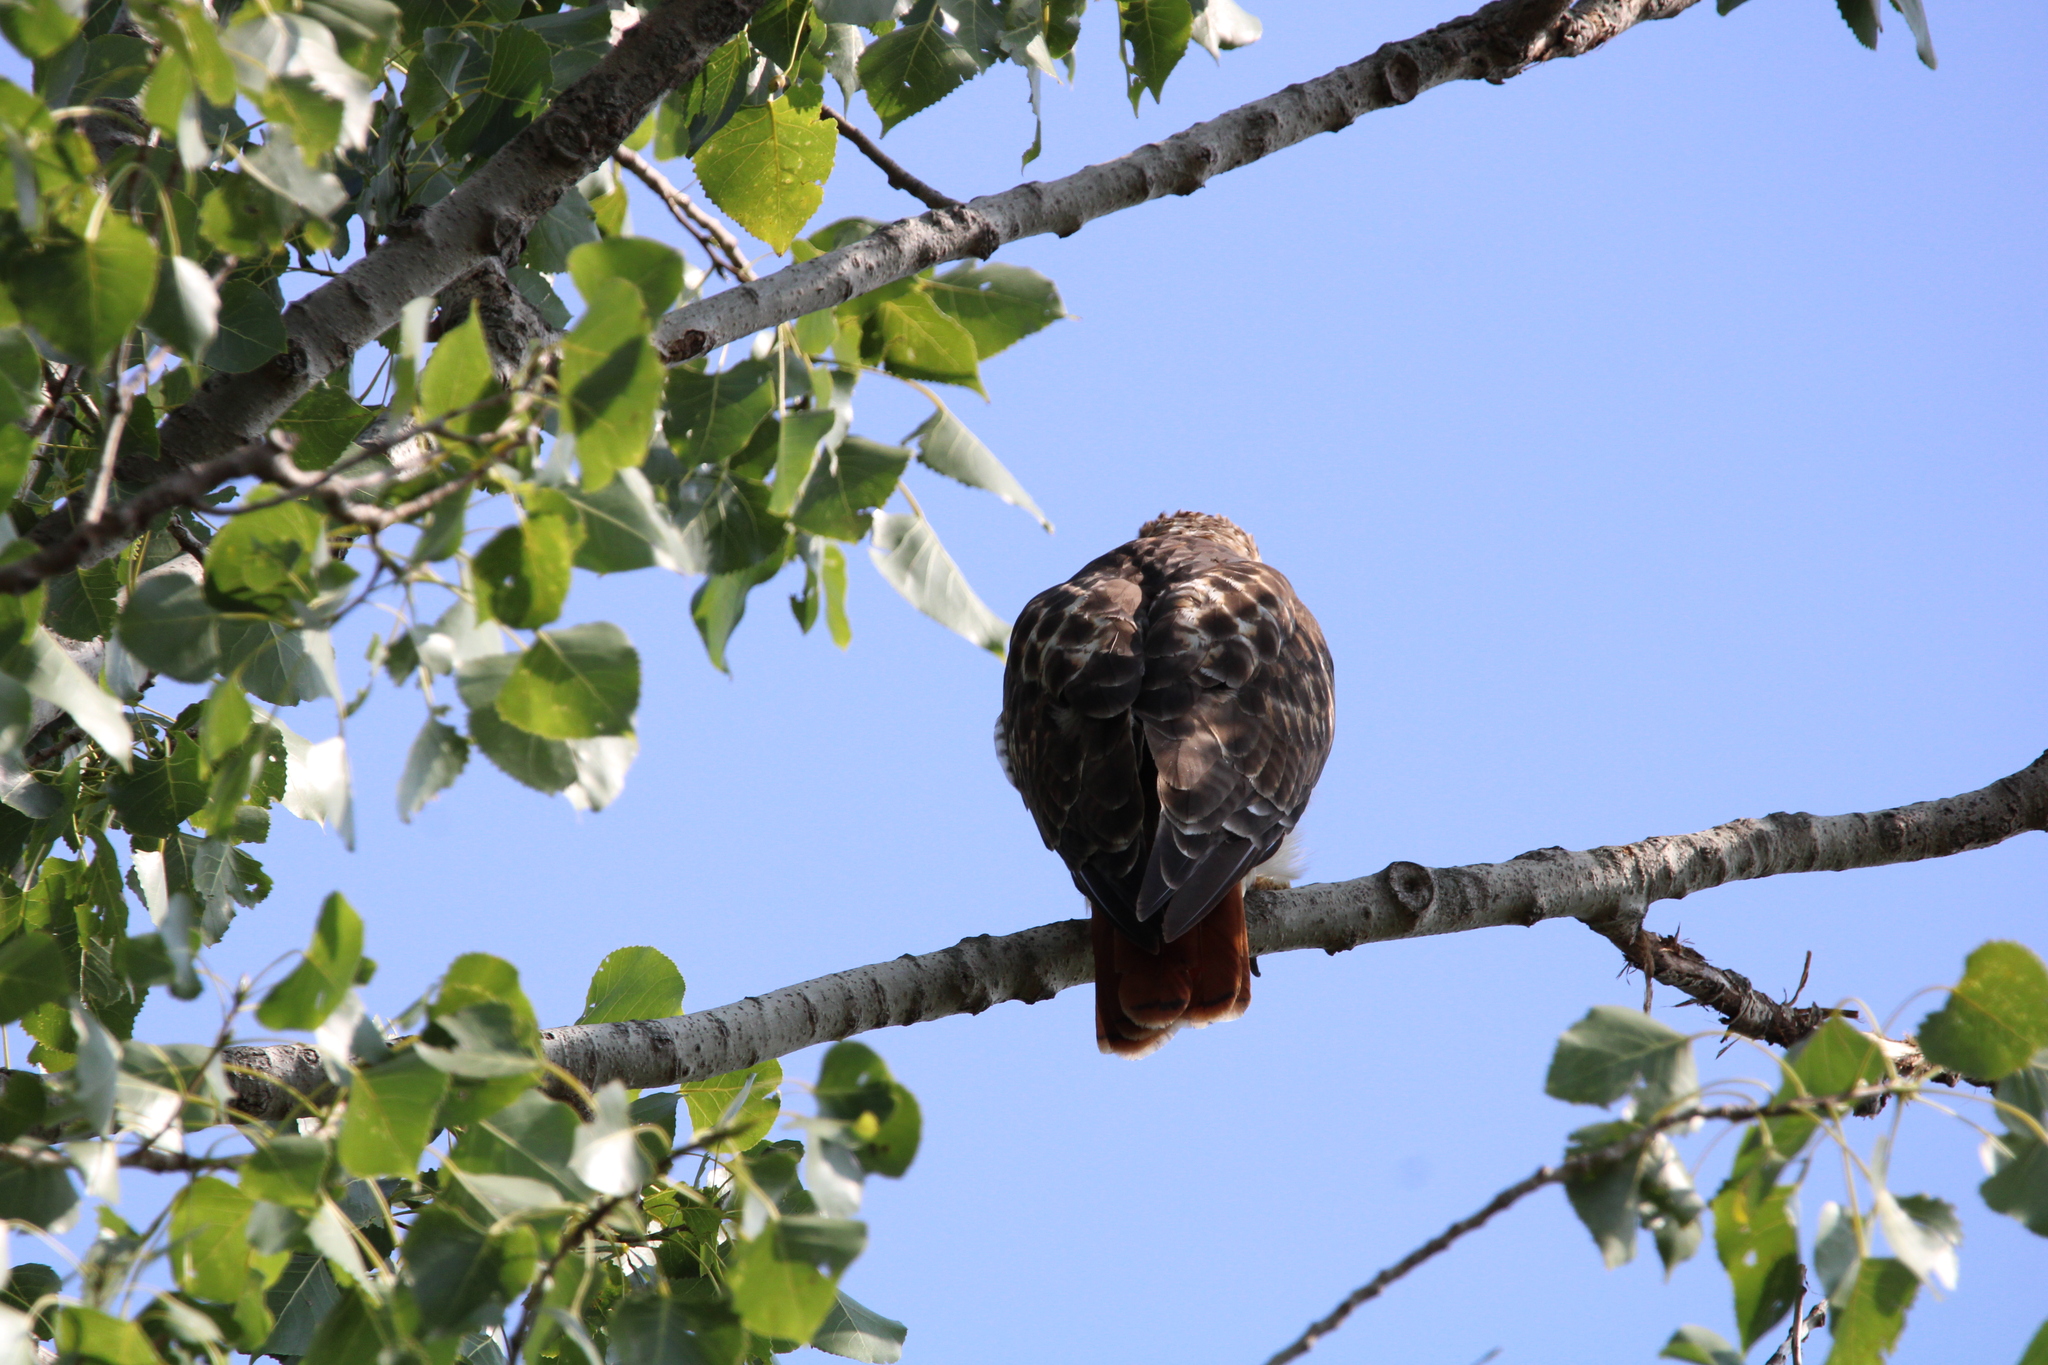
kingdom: Animalia
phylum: Chordata
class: Aves
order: Accipitriformes
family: Accipitridae
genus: Buteo
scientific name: Buteo jamaicensis
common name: Red-tailed hawk
